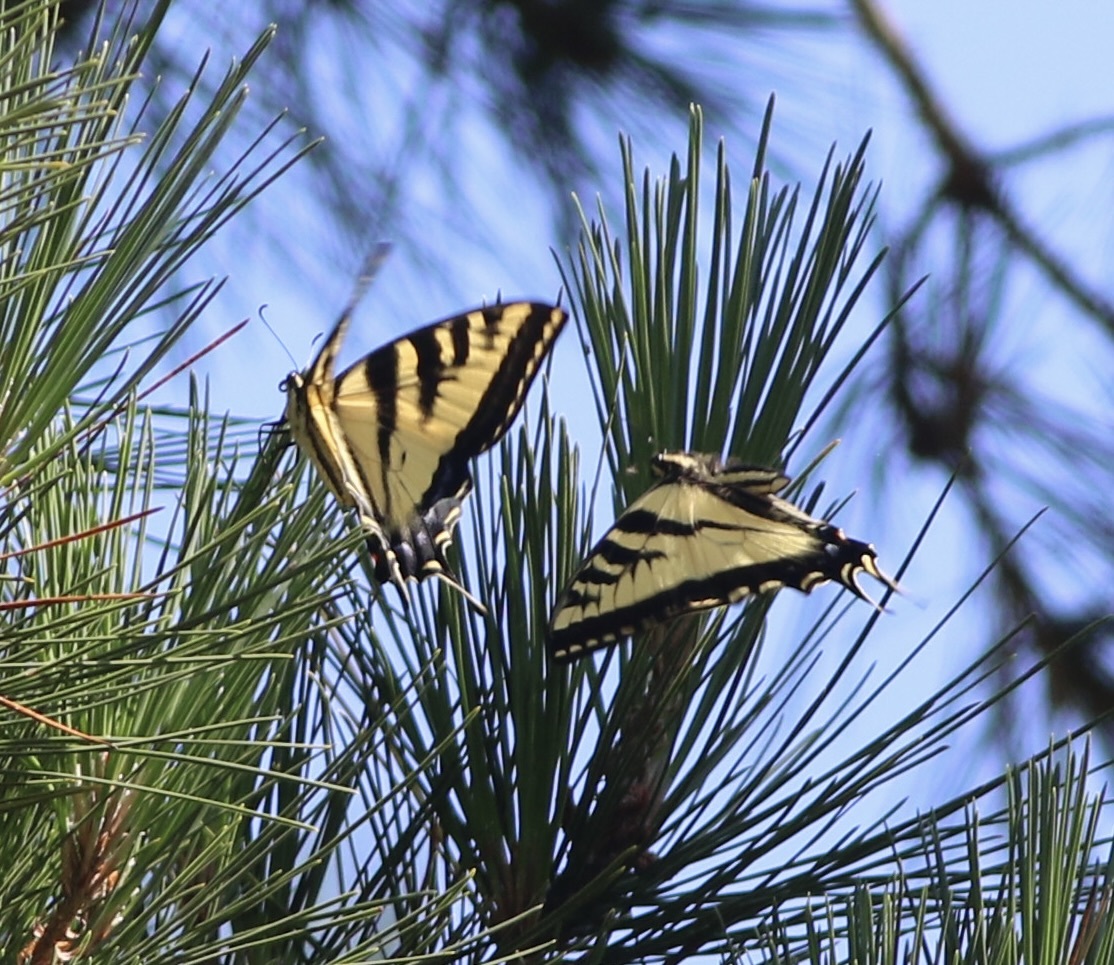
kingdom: Animalia
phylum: Arthropoda
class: Insecta
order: Lepidoptera
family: Papilionidae
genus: Papilio
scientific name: Papilio rutulus
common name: Western tiger swallowtail
